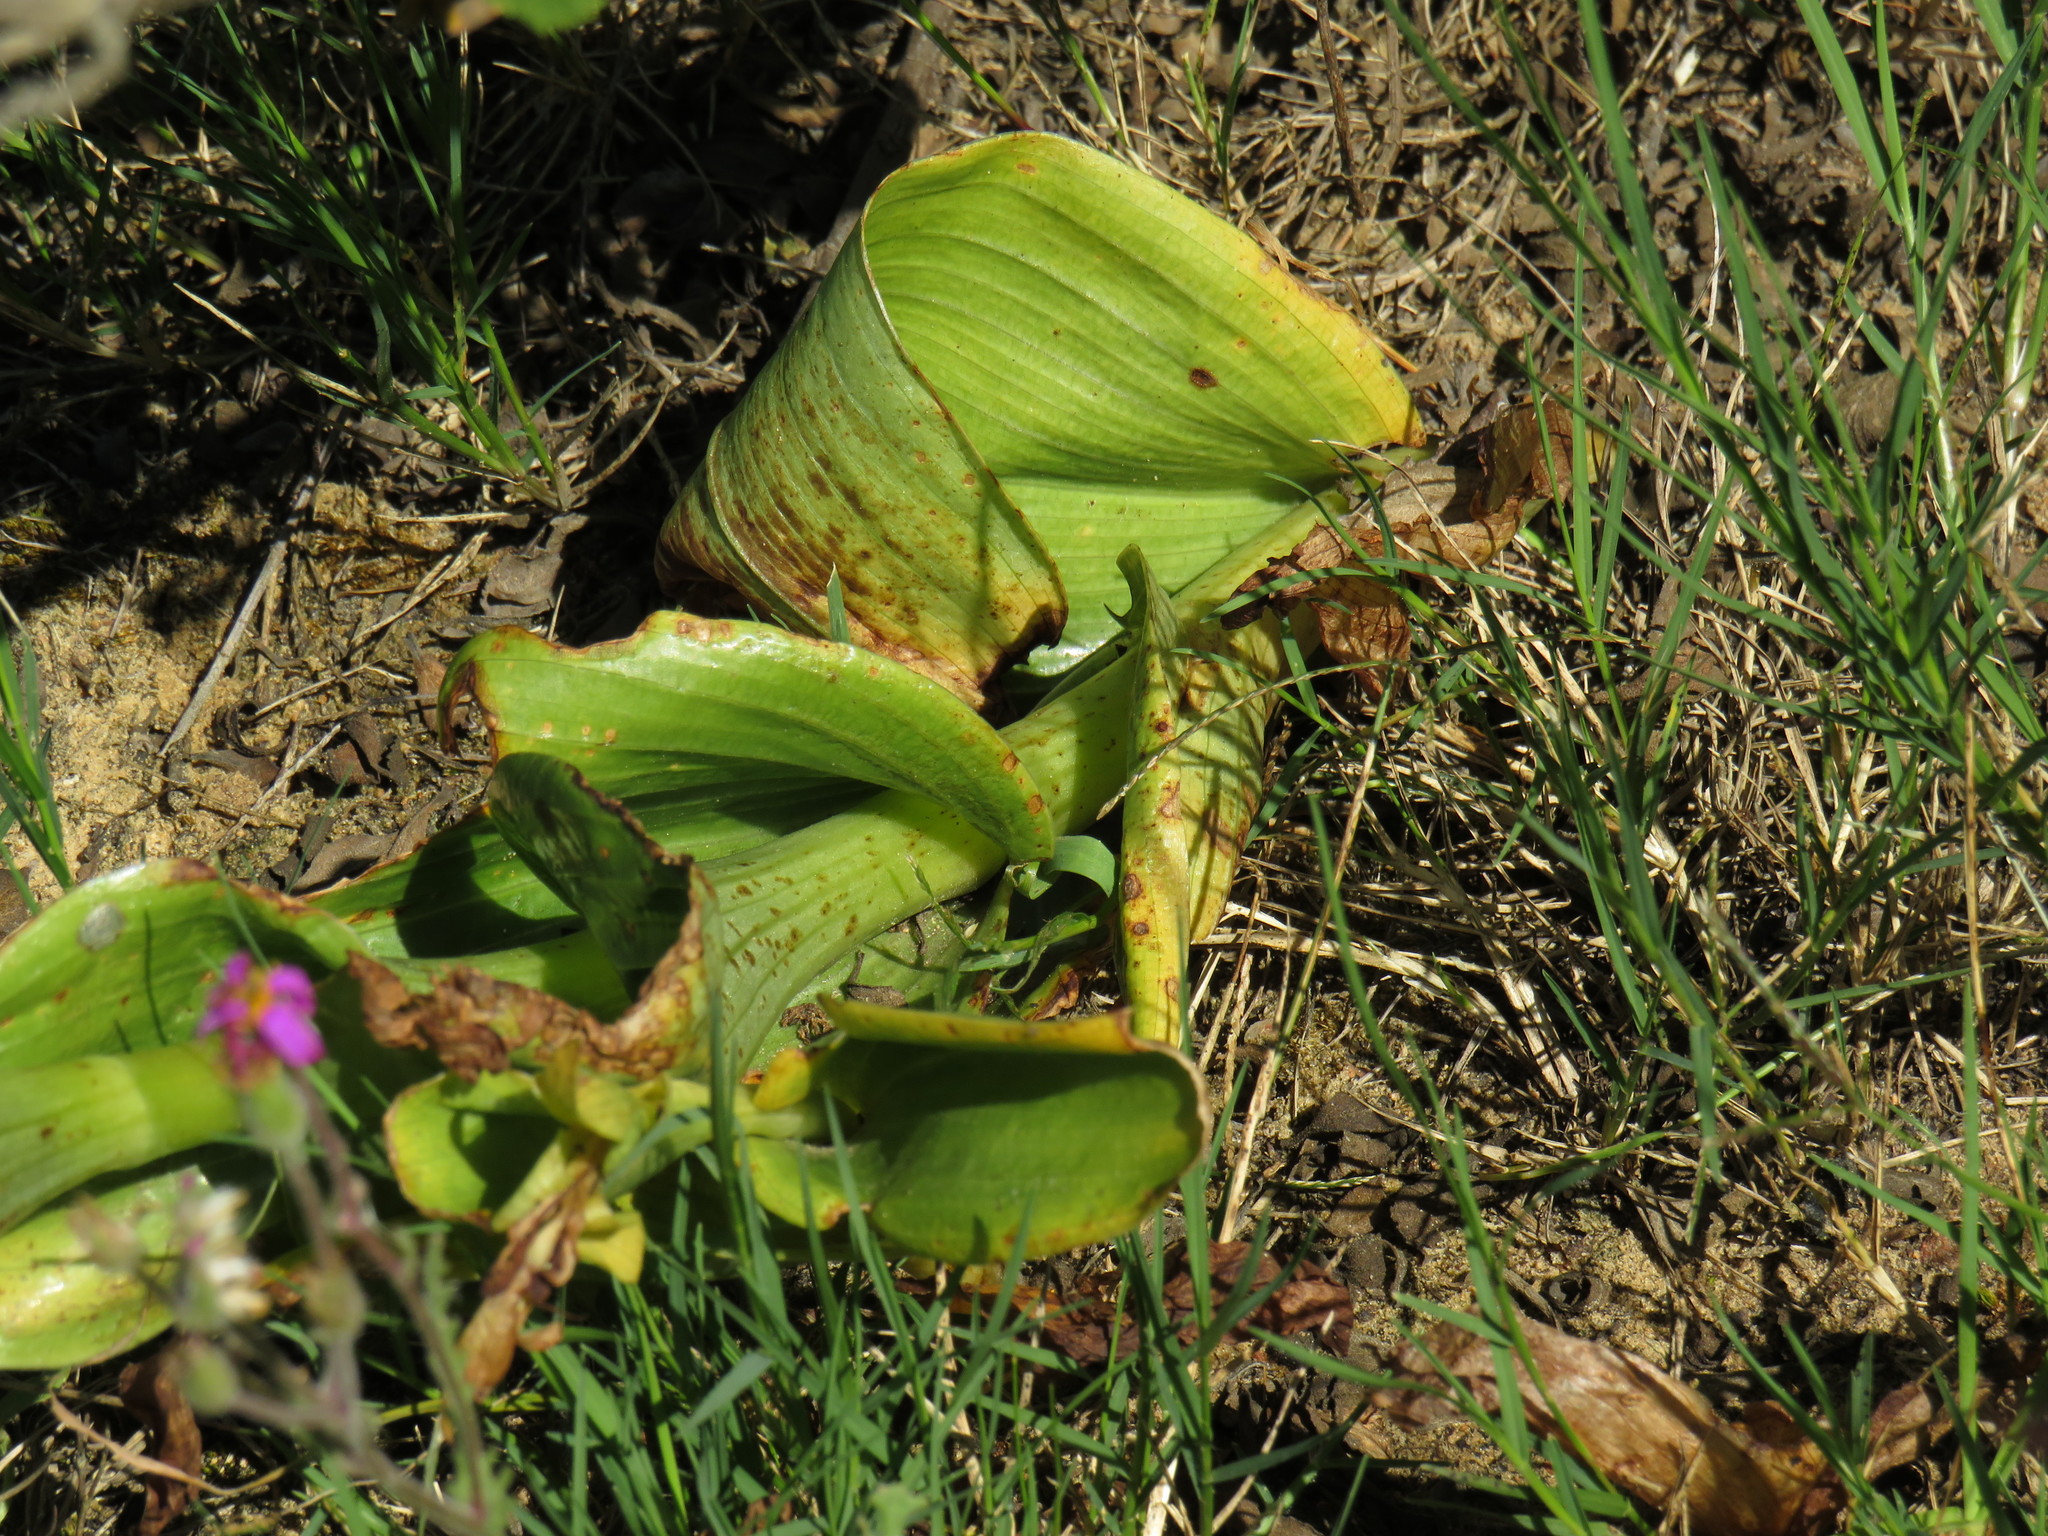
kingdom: Plantae
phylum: Tracheophyta
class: Liliopsida
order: Asparagales
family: Orchidaceae
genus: Satyrium
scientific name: Satyrium odorum
